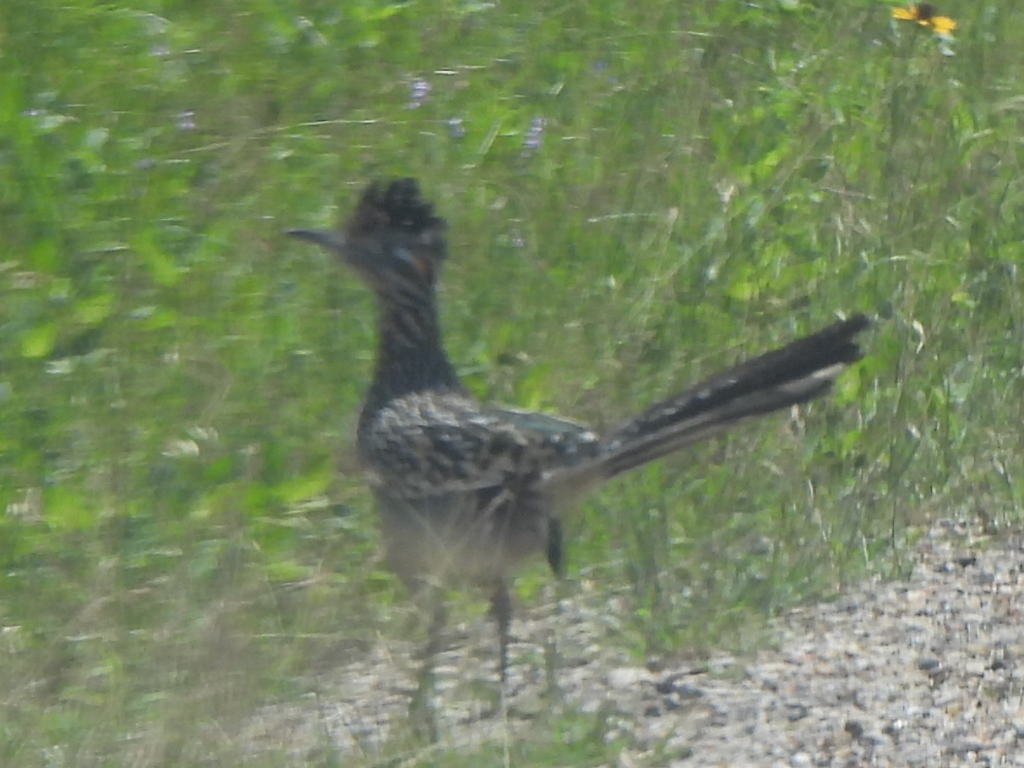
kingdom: Animalia
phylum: Chordata
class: Aves
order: Cuculiformes
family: Cuculidae
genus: Geococcyx
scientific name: Geococcyx californianus
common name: Greater roadrunner
